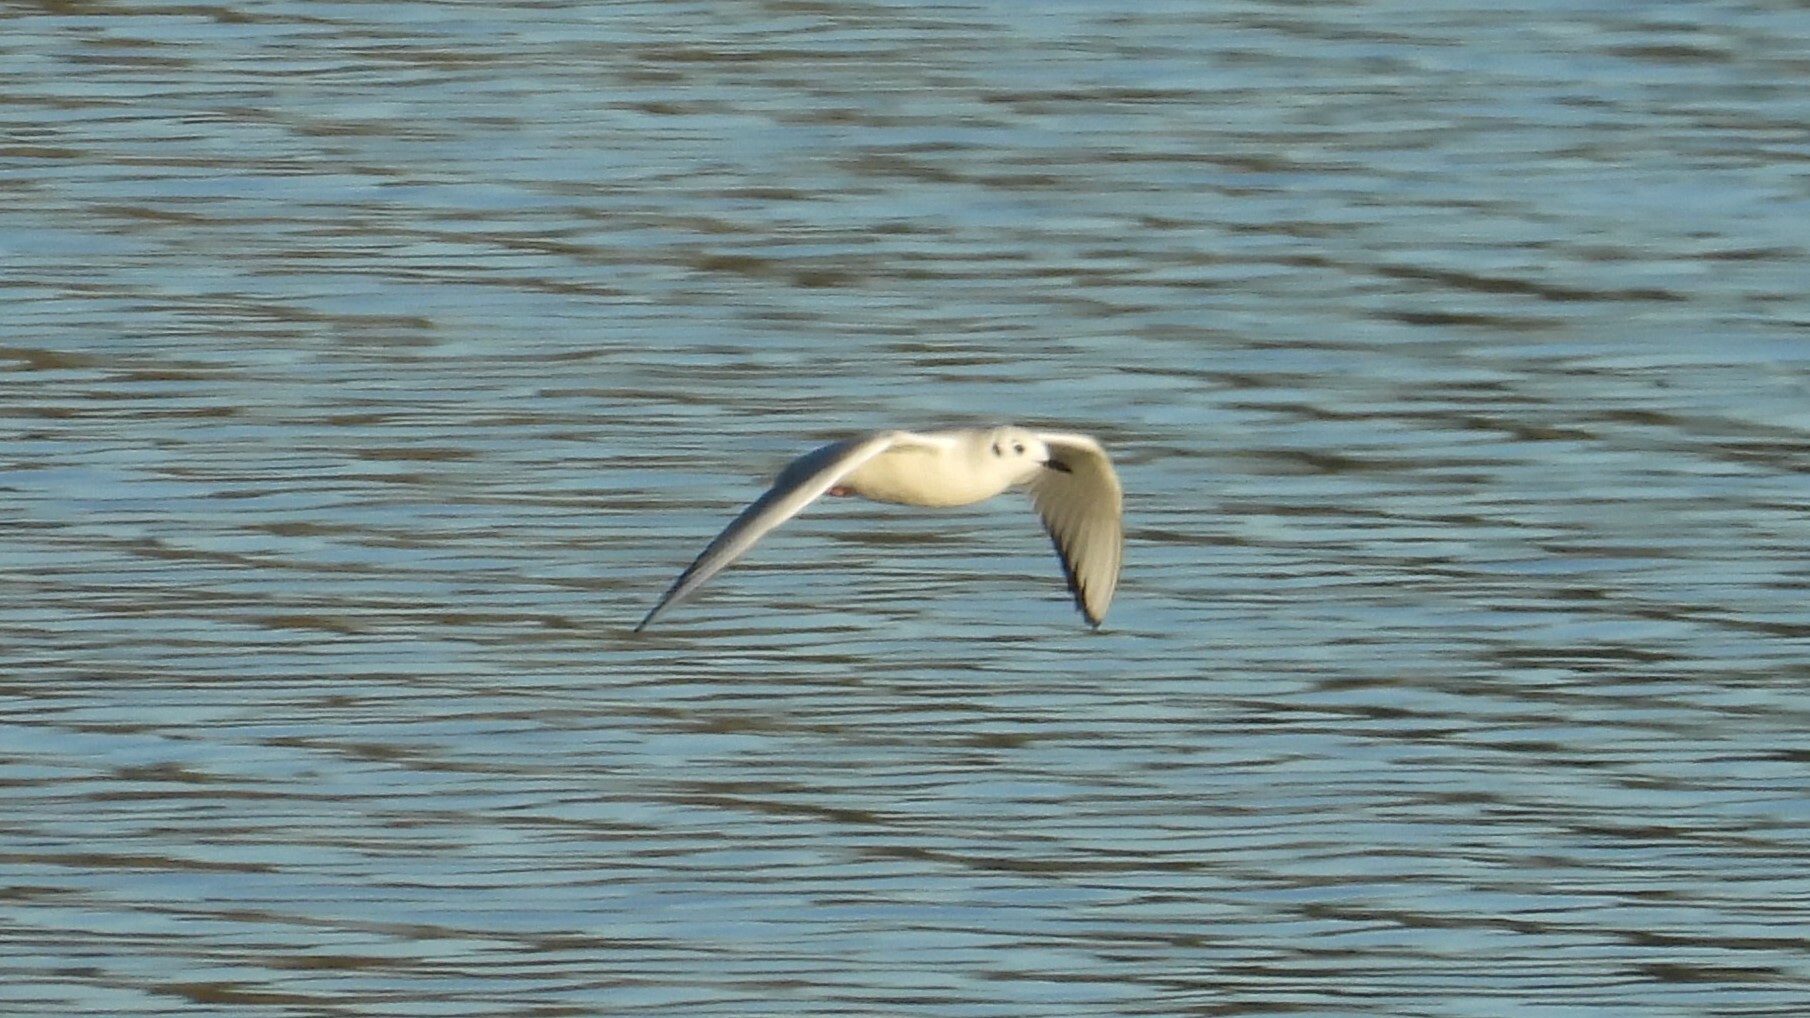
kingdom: Animalia
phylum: Chordata
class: Aves
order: Charadriiformes
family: Laridae
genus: Chroicocephalus
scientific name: Chroicocephalus philadelphia
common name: Bonaparte's gull
